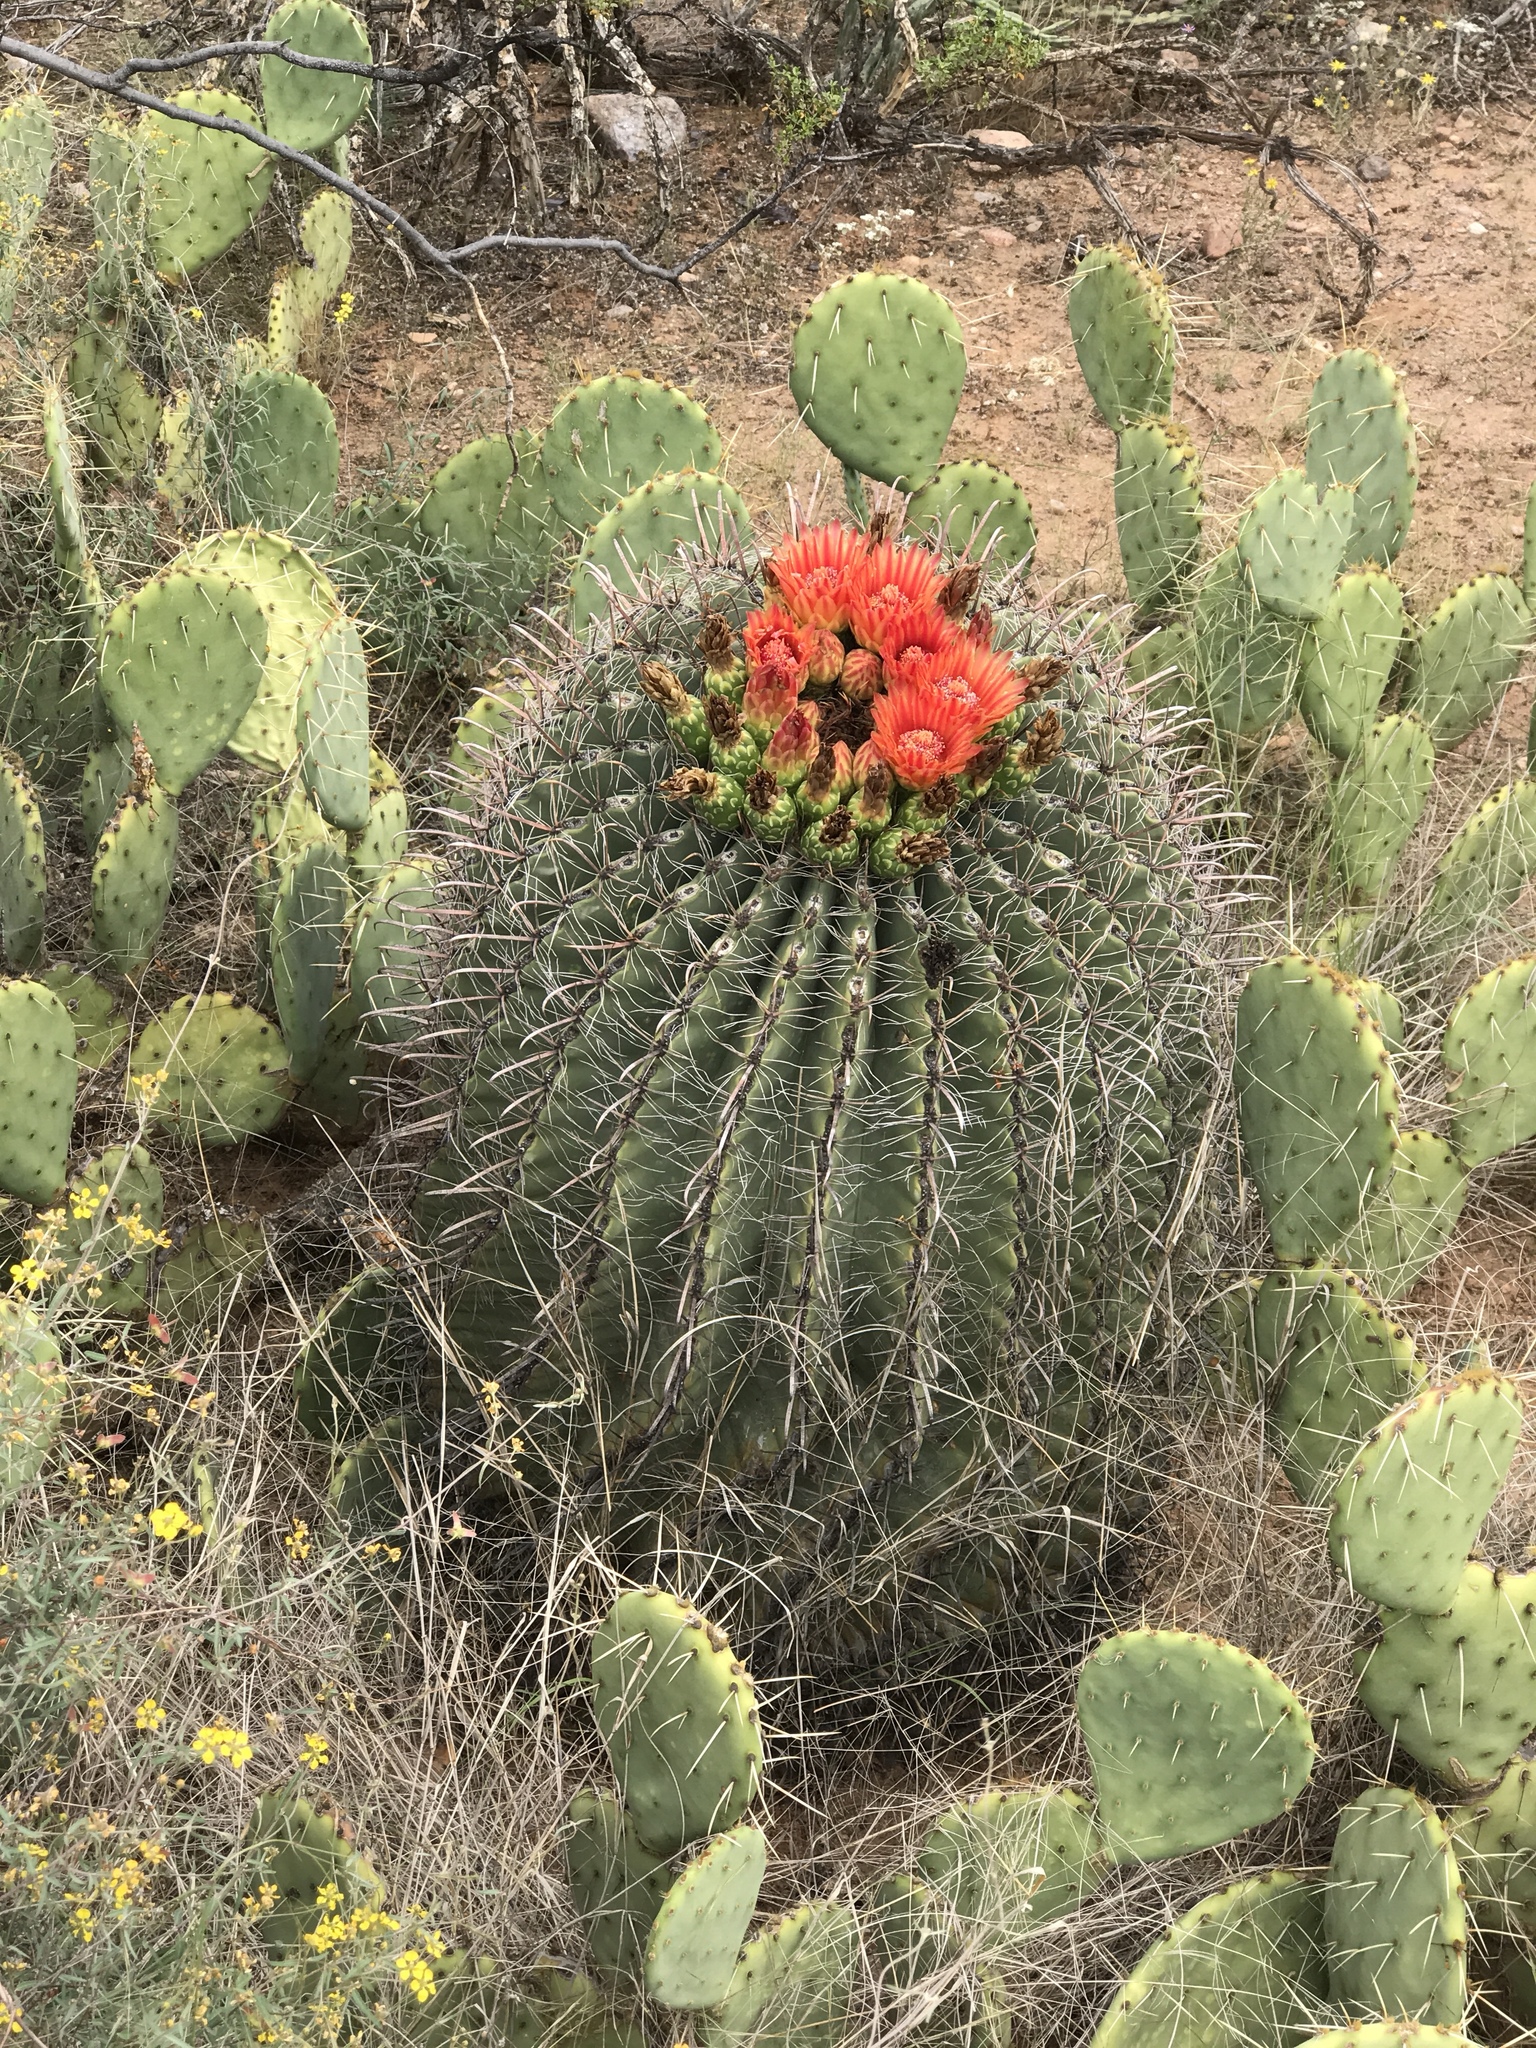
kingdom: Plantae
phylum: Tracheophyta
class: Magnoliopsida
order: Caryophyllales
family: Cactaceae
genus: Ferocactus
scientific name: Ferocactus wislizeni
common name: Candy barrel cactus
